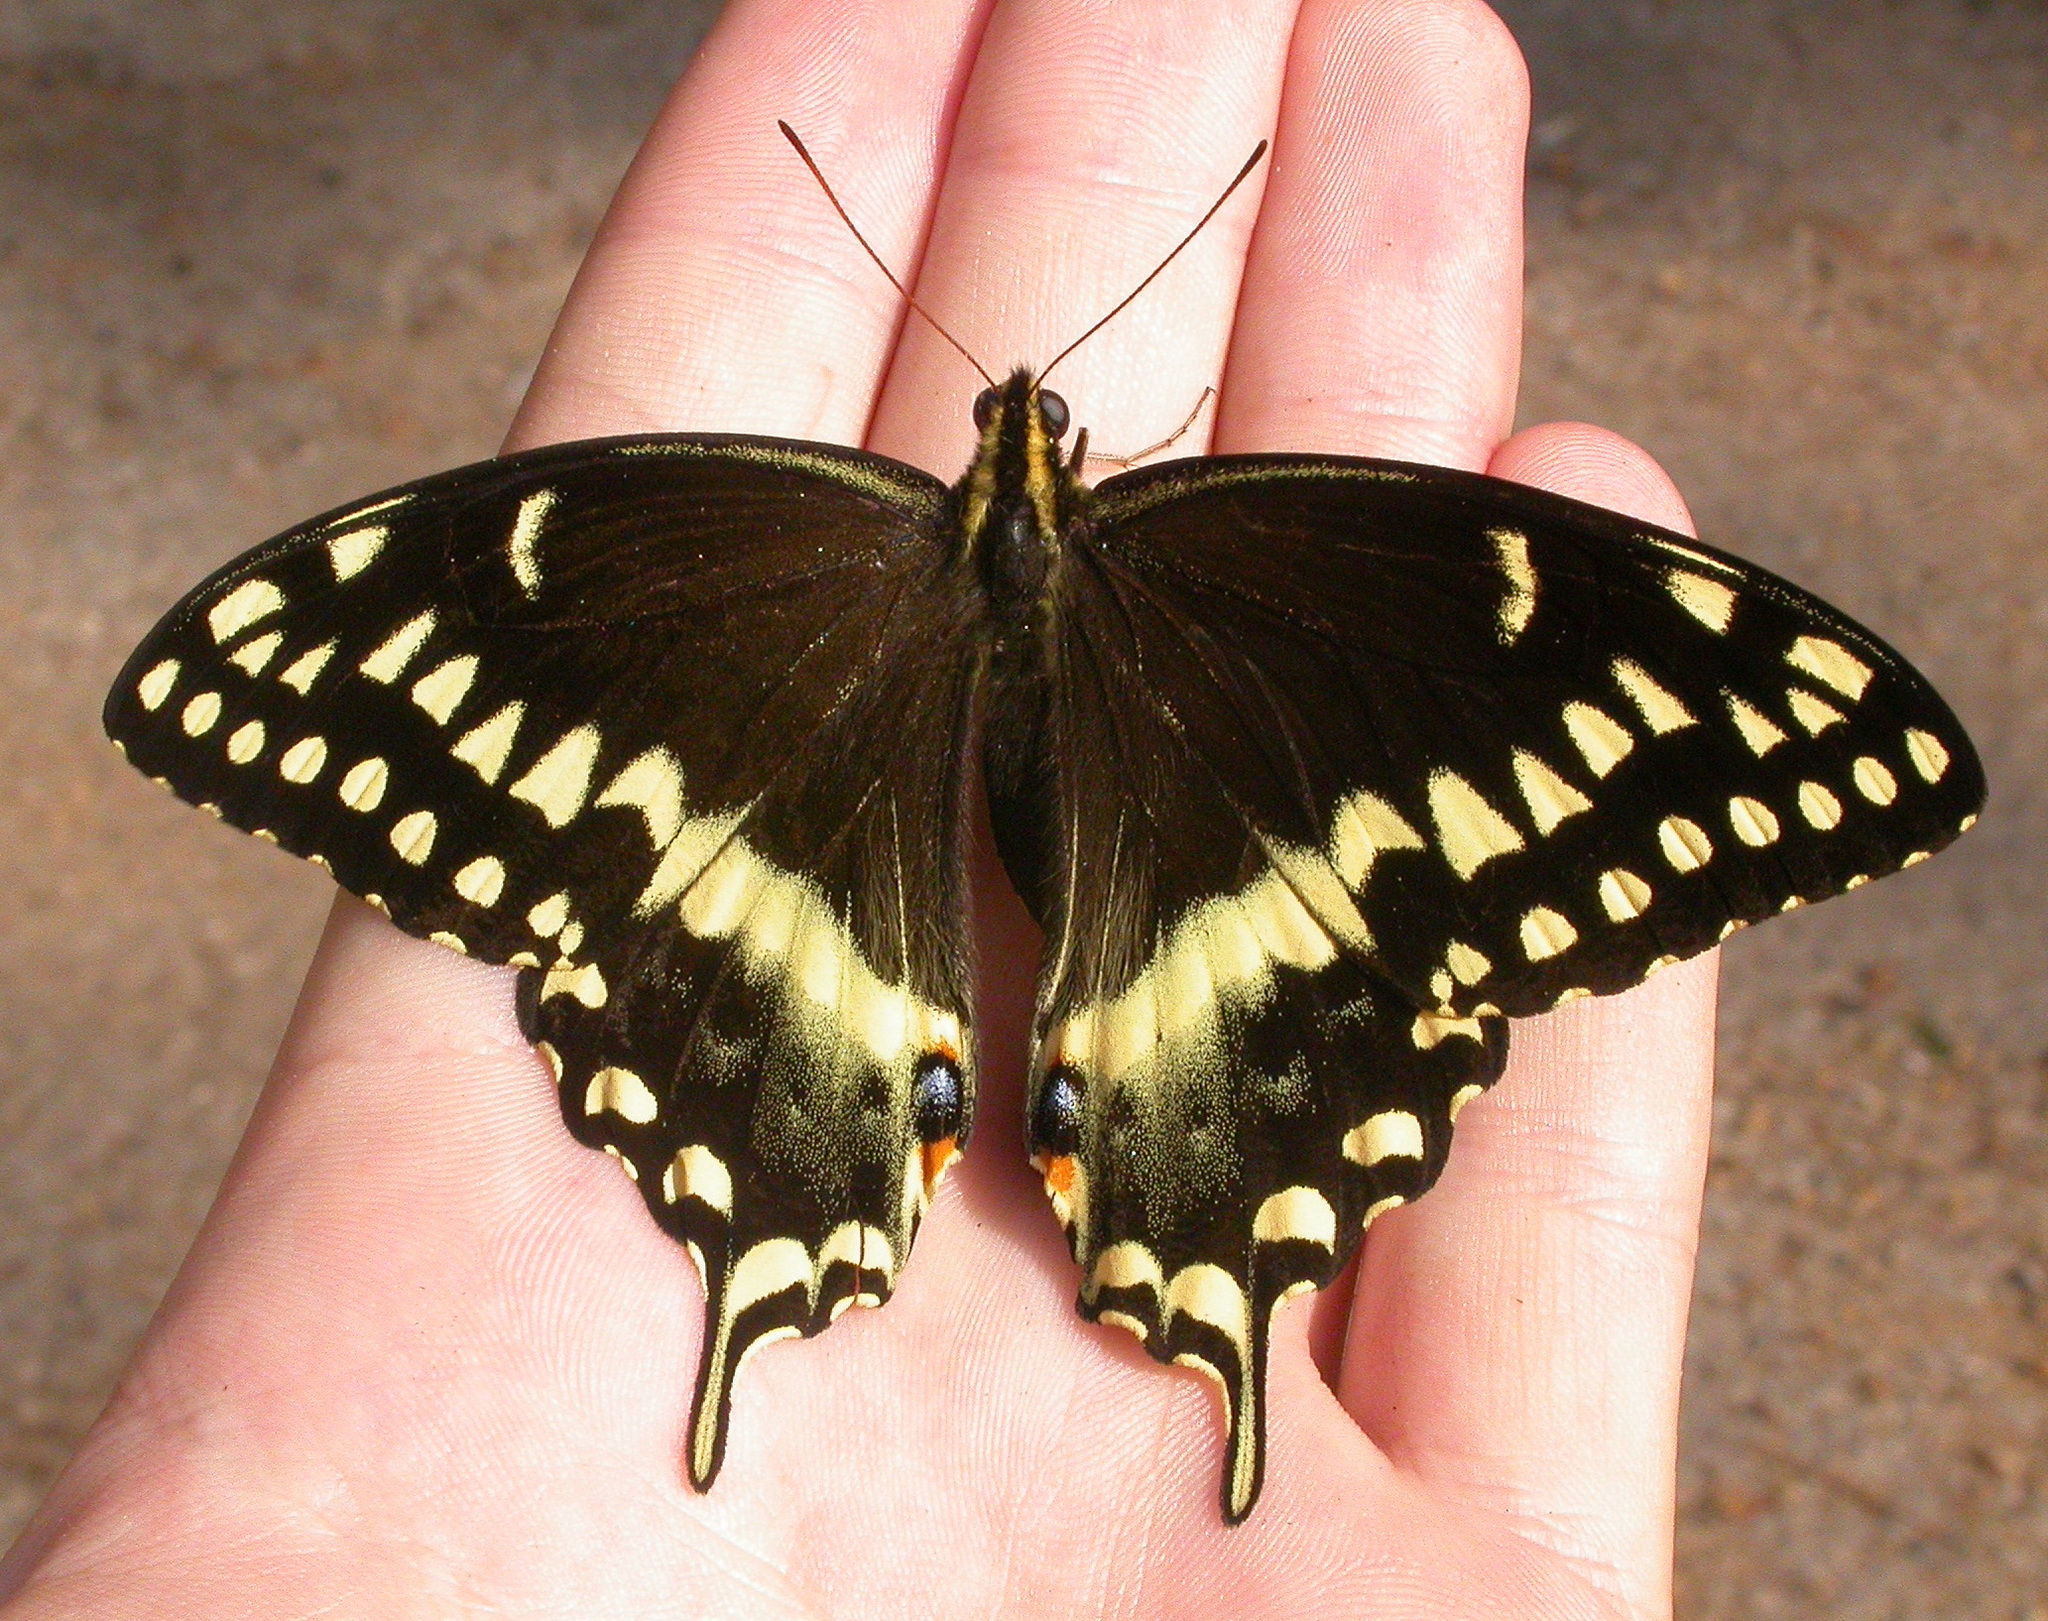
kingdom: Animalia
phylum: Arthropoda
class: Insecta
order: Lepidoptera
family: Papilionidae
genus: Papilio
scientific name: Papilio palamedes
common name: Palamedes swallowtail
